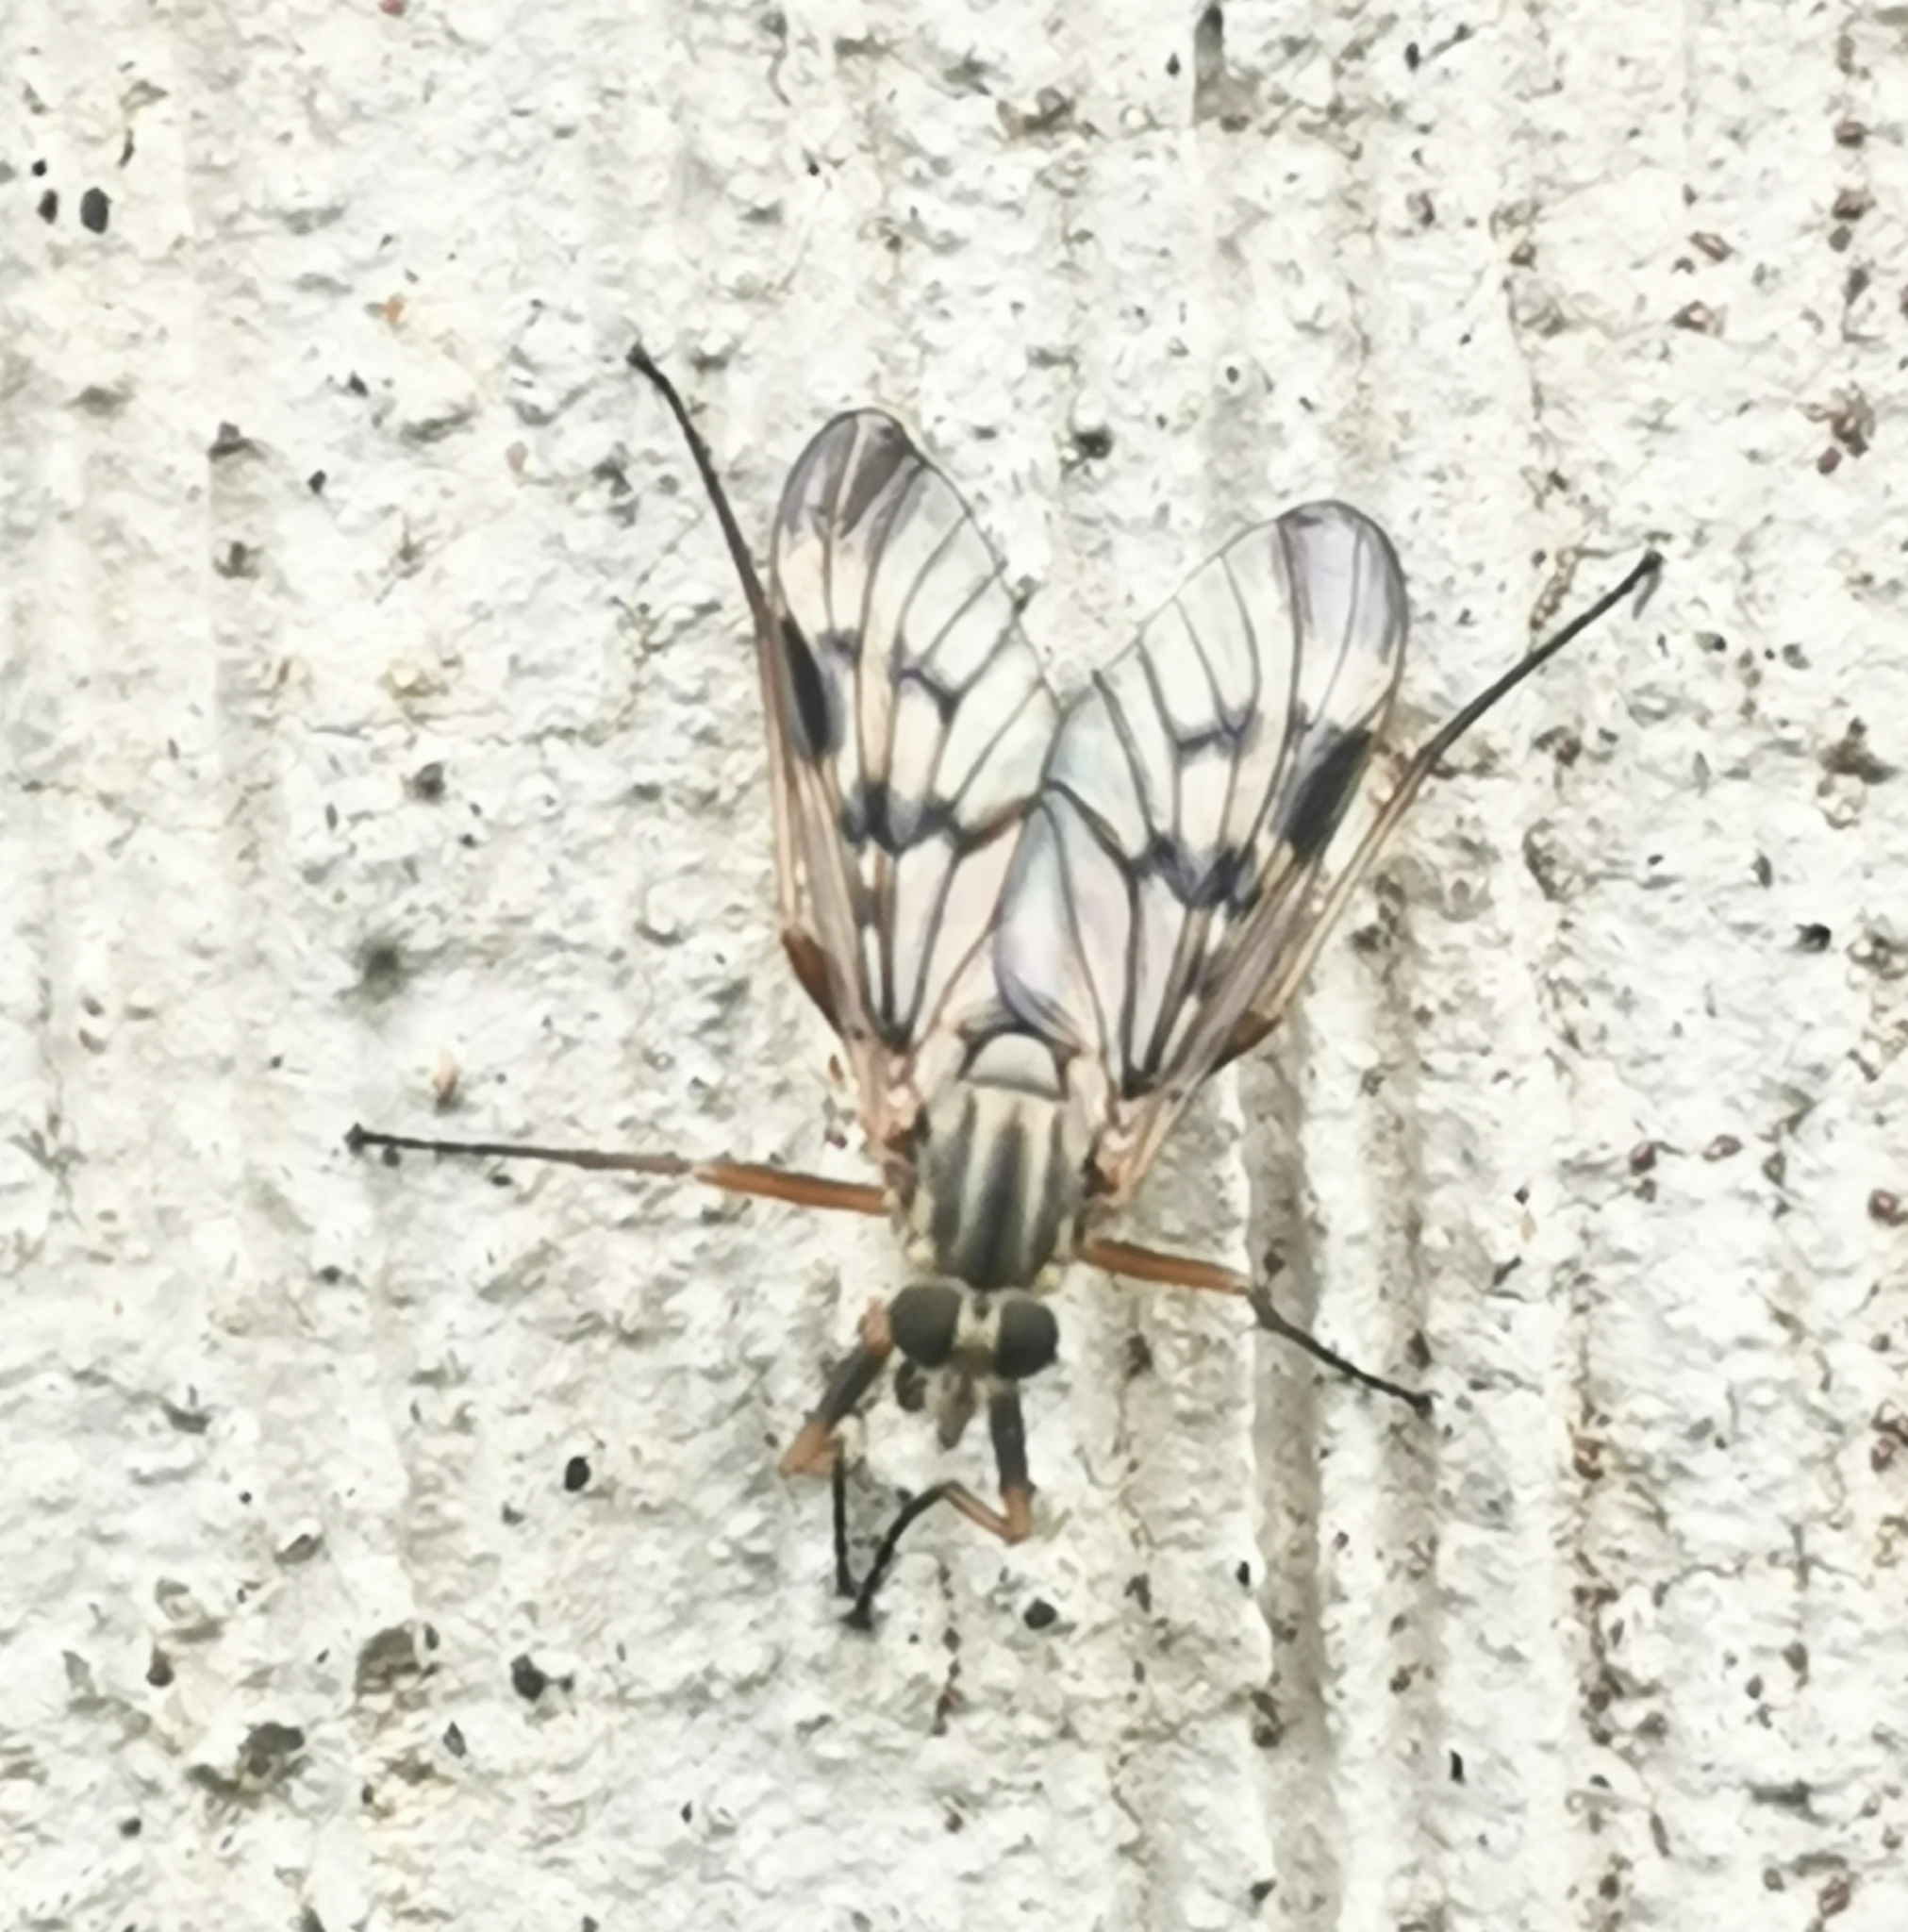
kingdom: Animalia
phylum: Arthropoda
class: Insecta
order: Diptera
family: Rhagionidae
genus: Rhagio
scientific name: Rhagio scolopacea
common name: Downlooker snipefly
